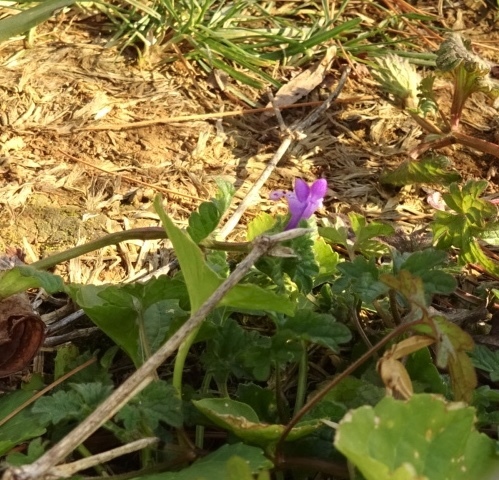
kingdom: Plantae
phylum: Tracheophyta
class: Magnoliopsida
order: Lamiales
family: Lamiaceae
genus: Lamium
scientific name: Lamium amplexicaule
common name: Henbit dead-nettle
